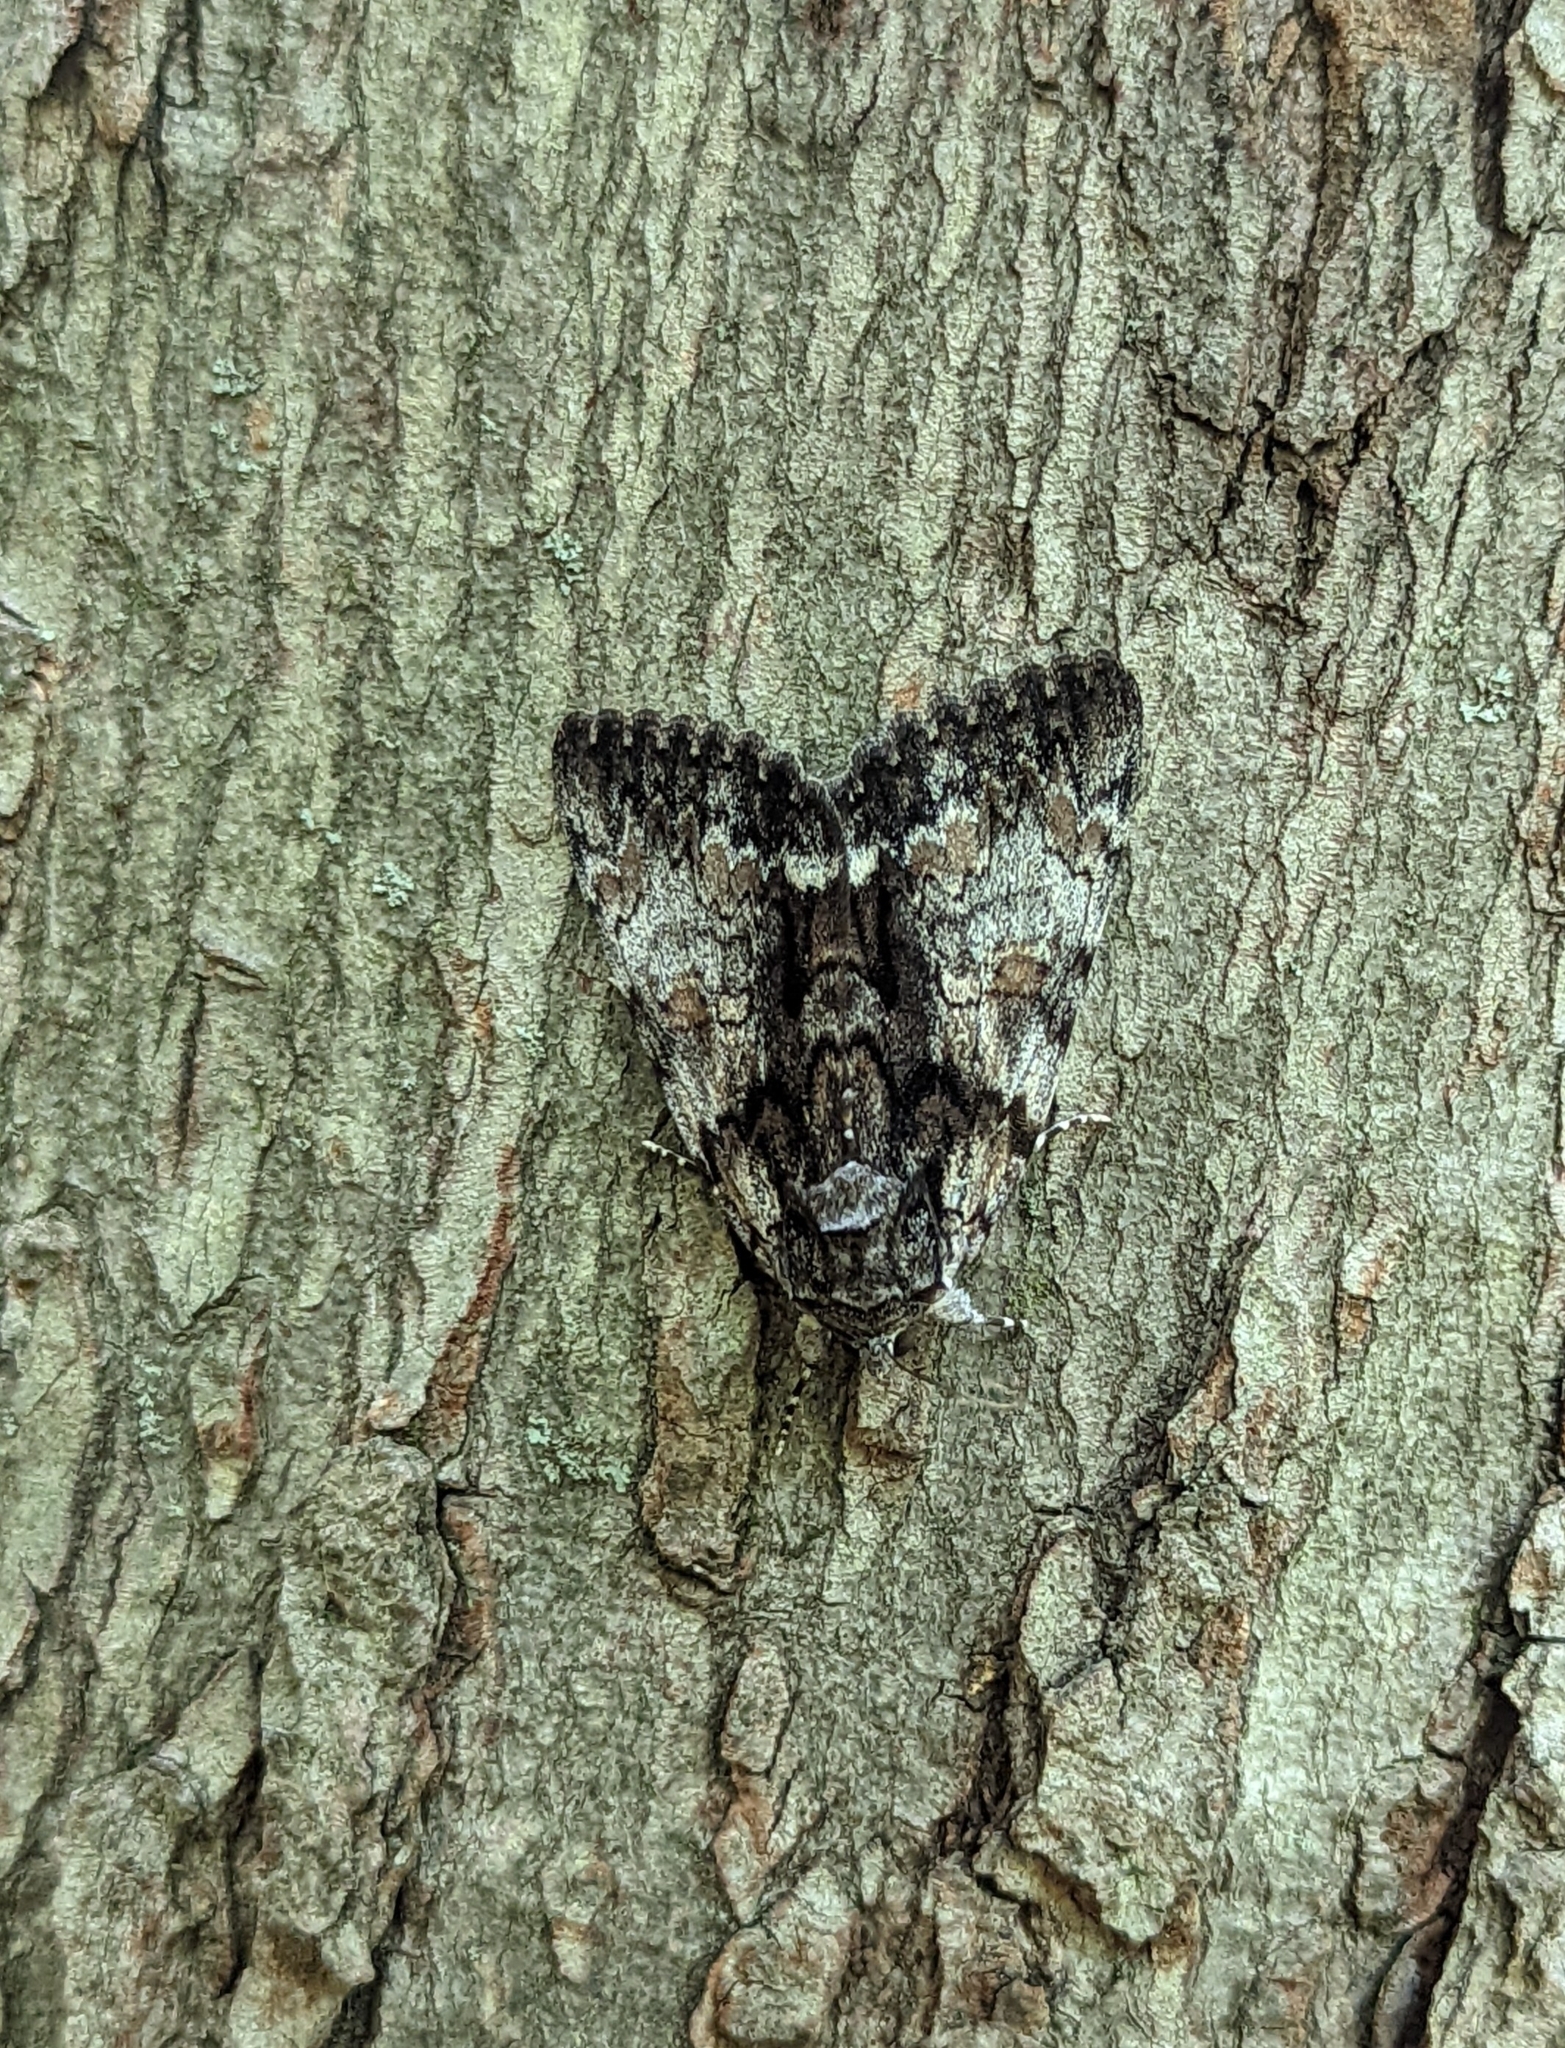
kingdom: Animalia
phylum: Arthropoda
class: Insecta
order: Lepidoptera
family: Erebidae
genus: Catocala
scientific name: Catocala palaeogama
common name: Oldwife underwing
